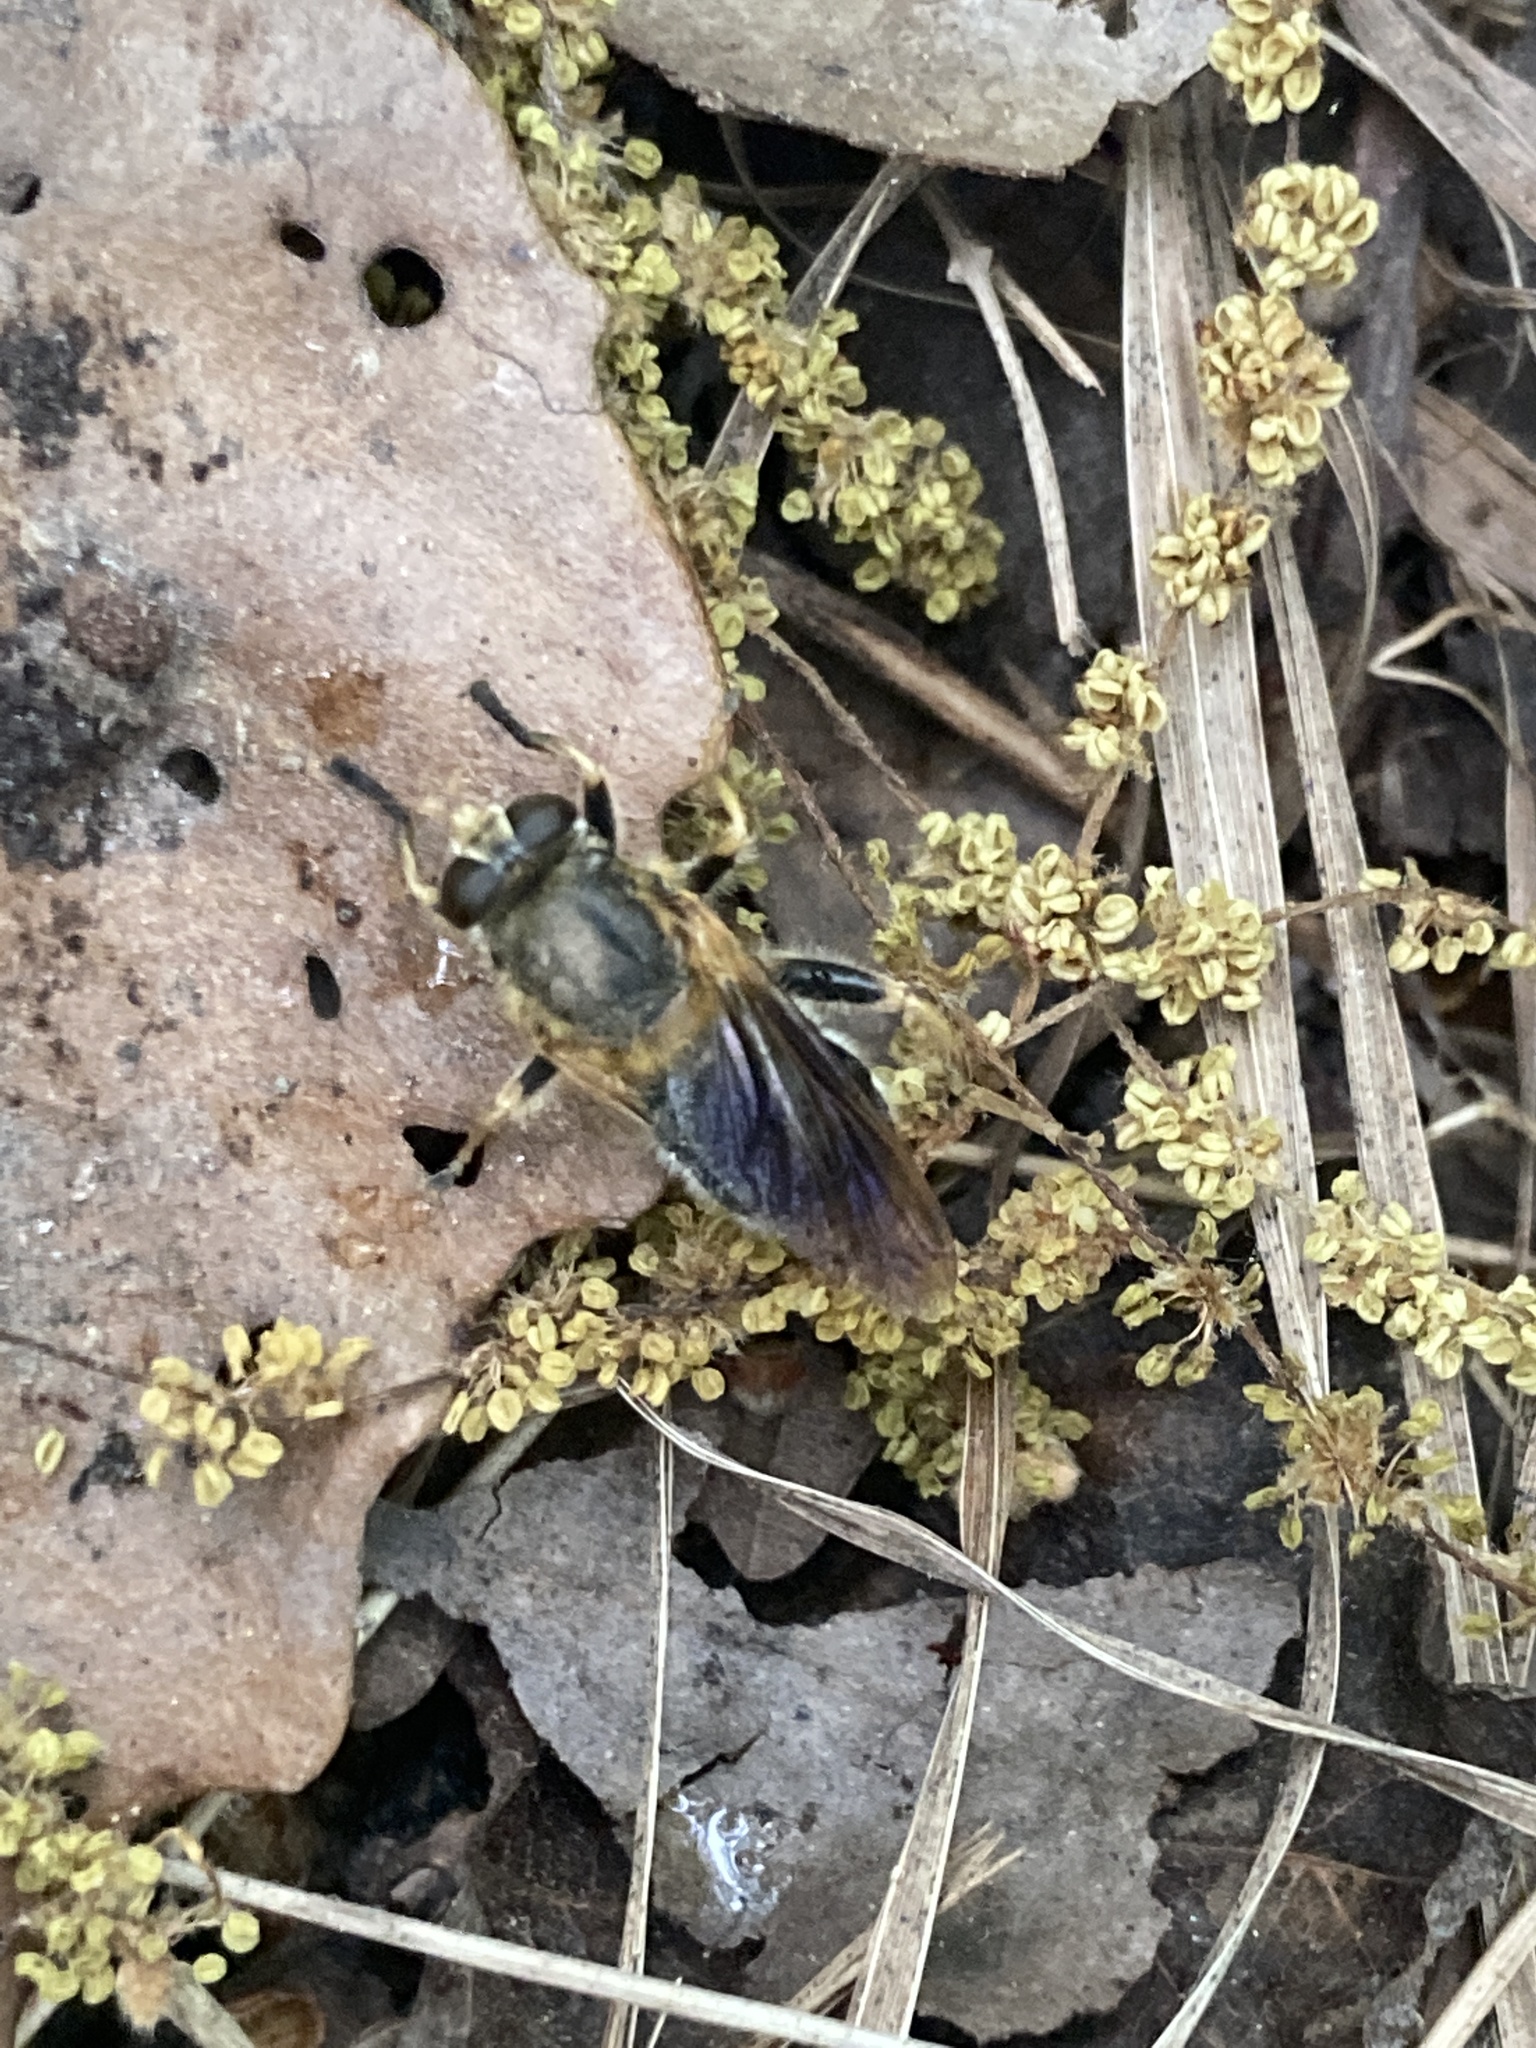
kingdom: Animalia
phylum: Arthropoda
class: Insecta
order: Diptera
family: Syrphidae
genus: Teuchocnemis
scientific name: Teuchocnemis lituratus
